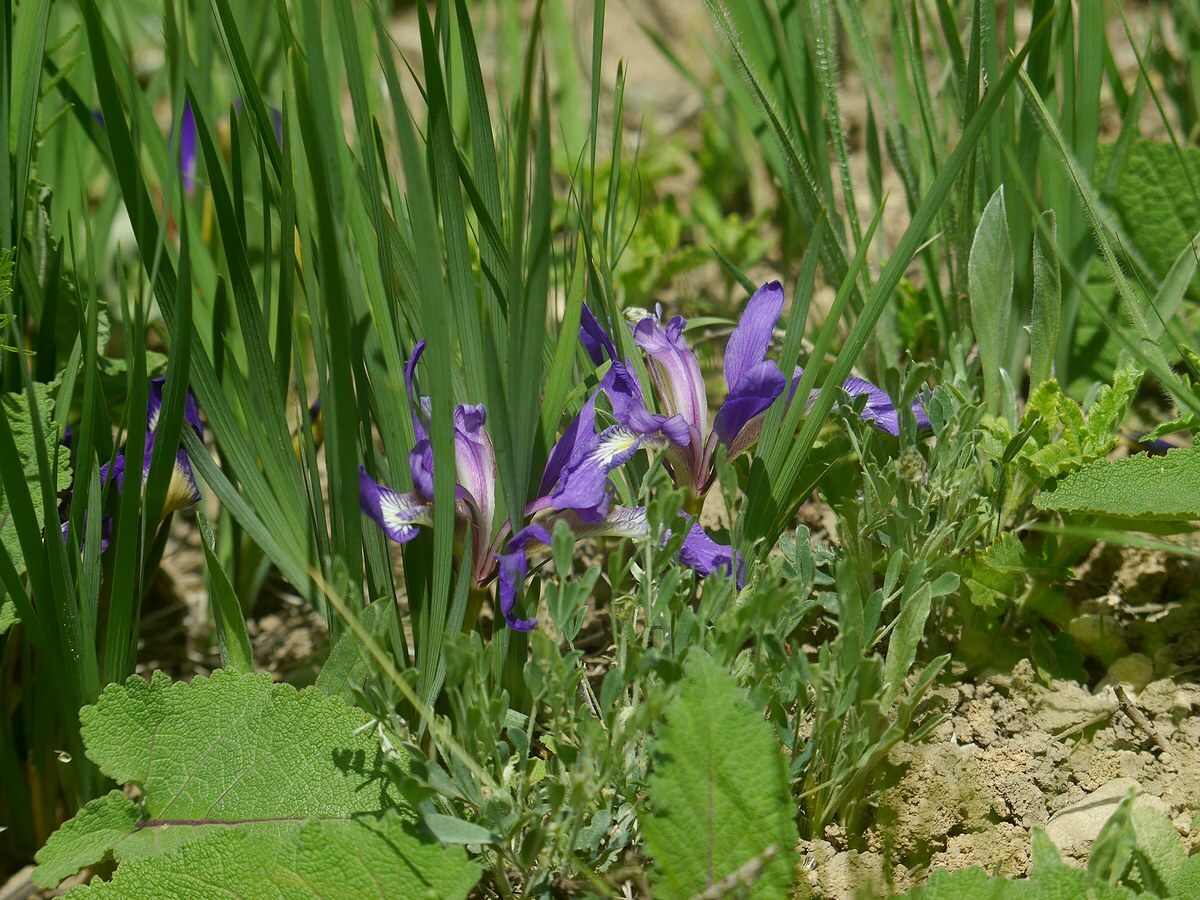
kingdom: Plantae
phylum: Tracheophyta
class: Liliopsida
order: Asparagales
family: Iridaceae
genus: Iris
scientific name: Iris pontica
